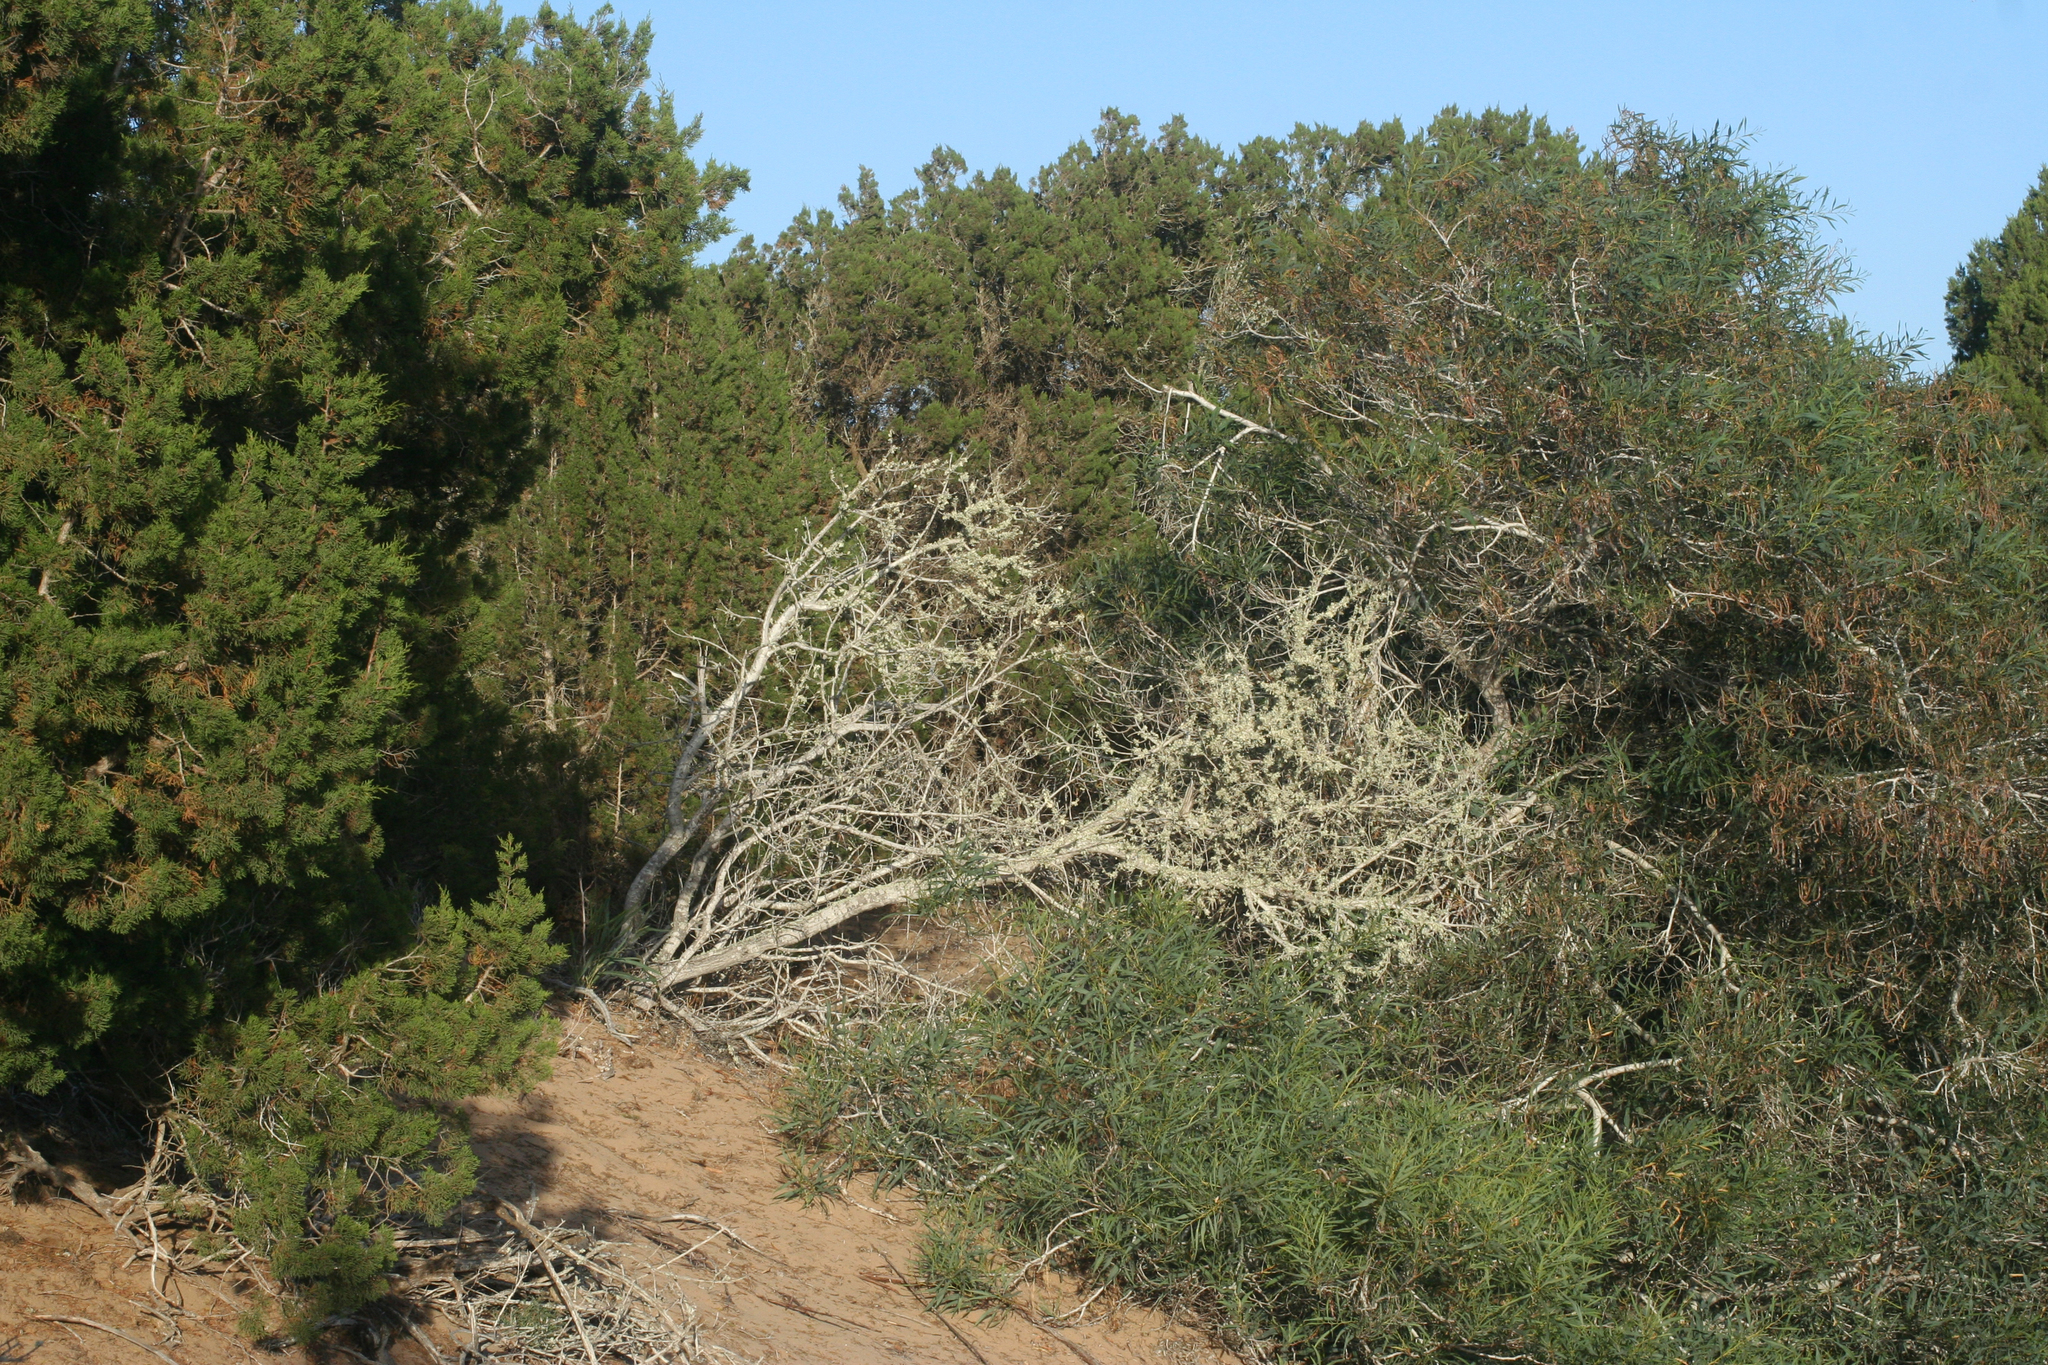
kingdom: Plantae
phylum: Tracheophyta
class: Pinopsida
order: Pinales
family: Cupressaceae
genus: Juniperus
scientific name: Juniperus phoenicea
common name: Phoenician juniper
